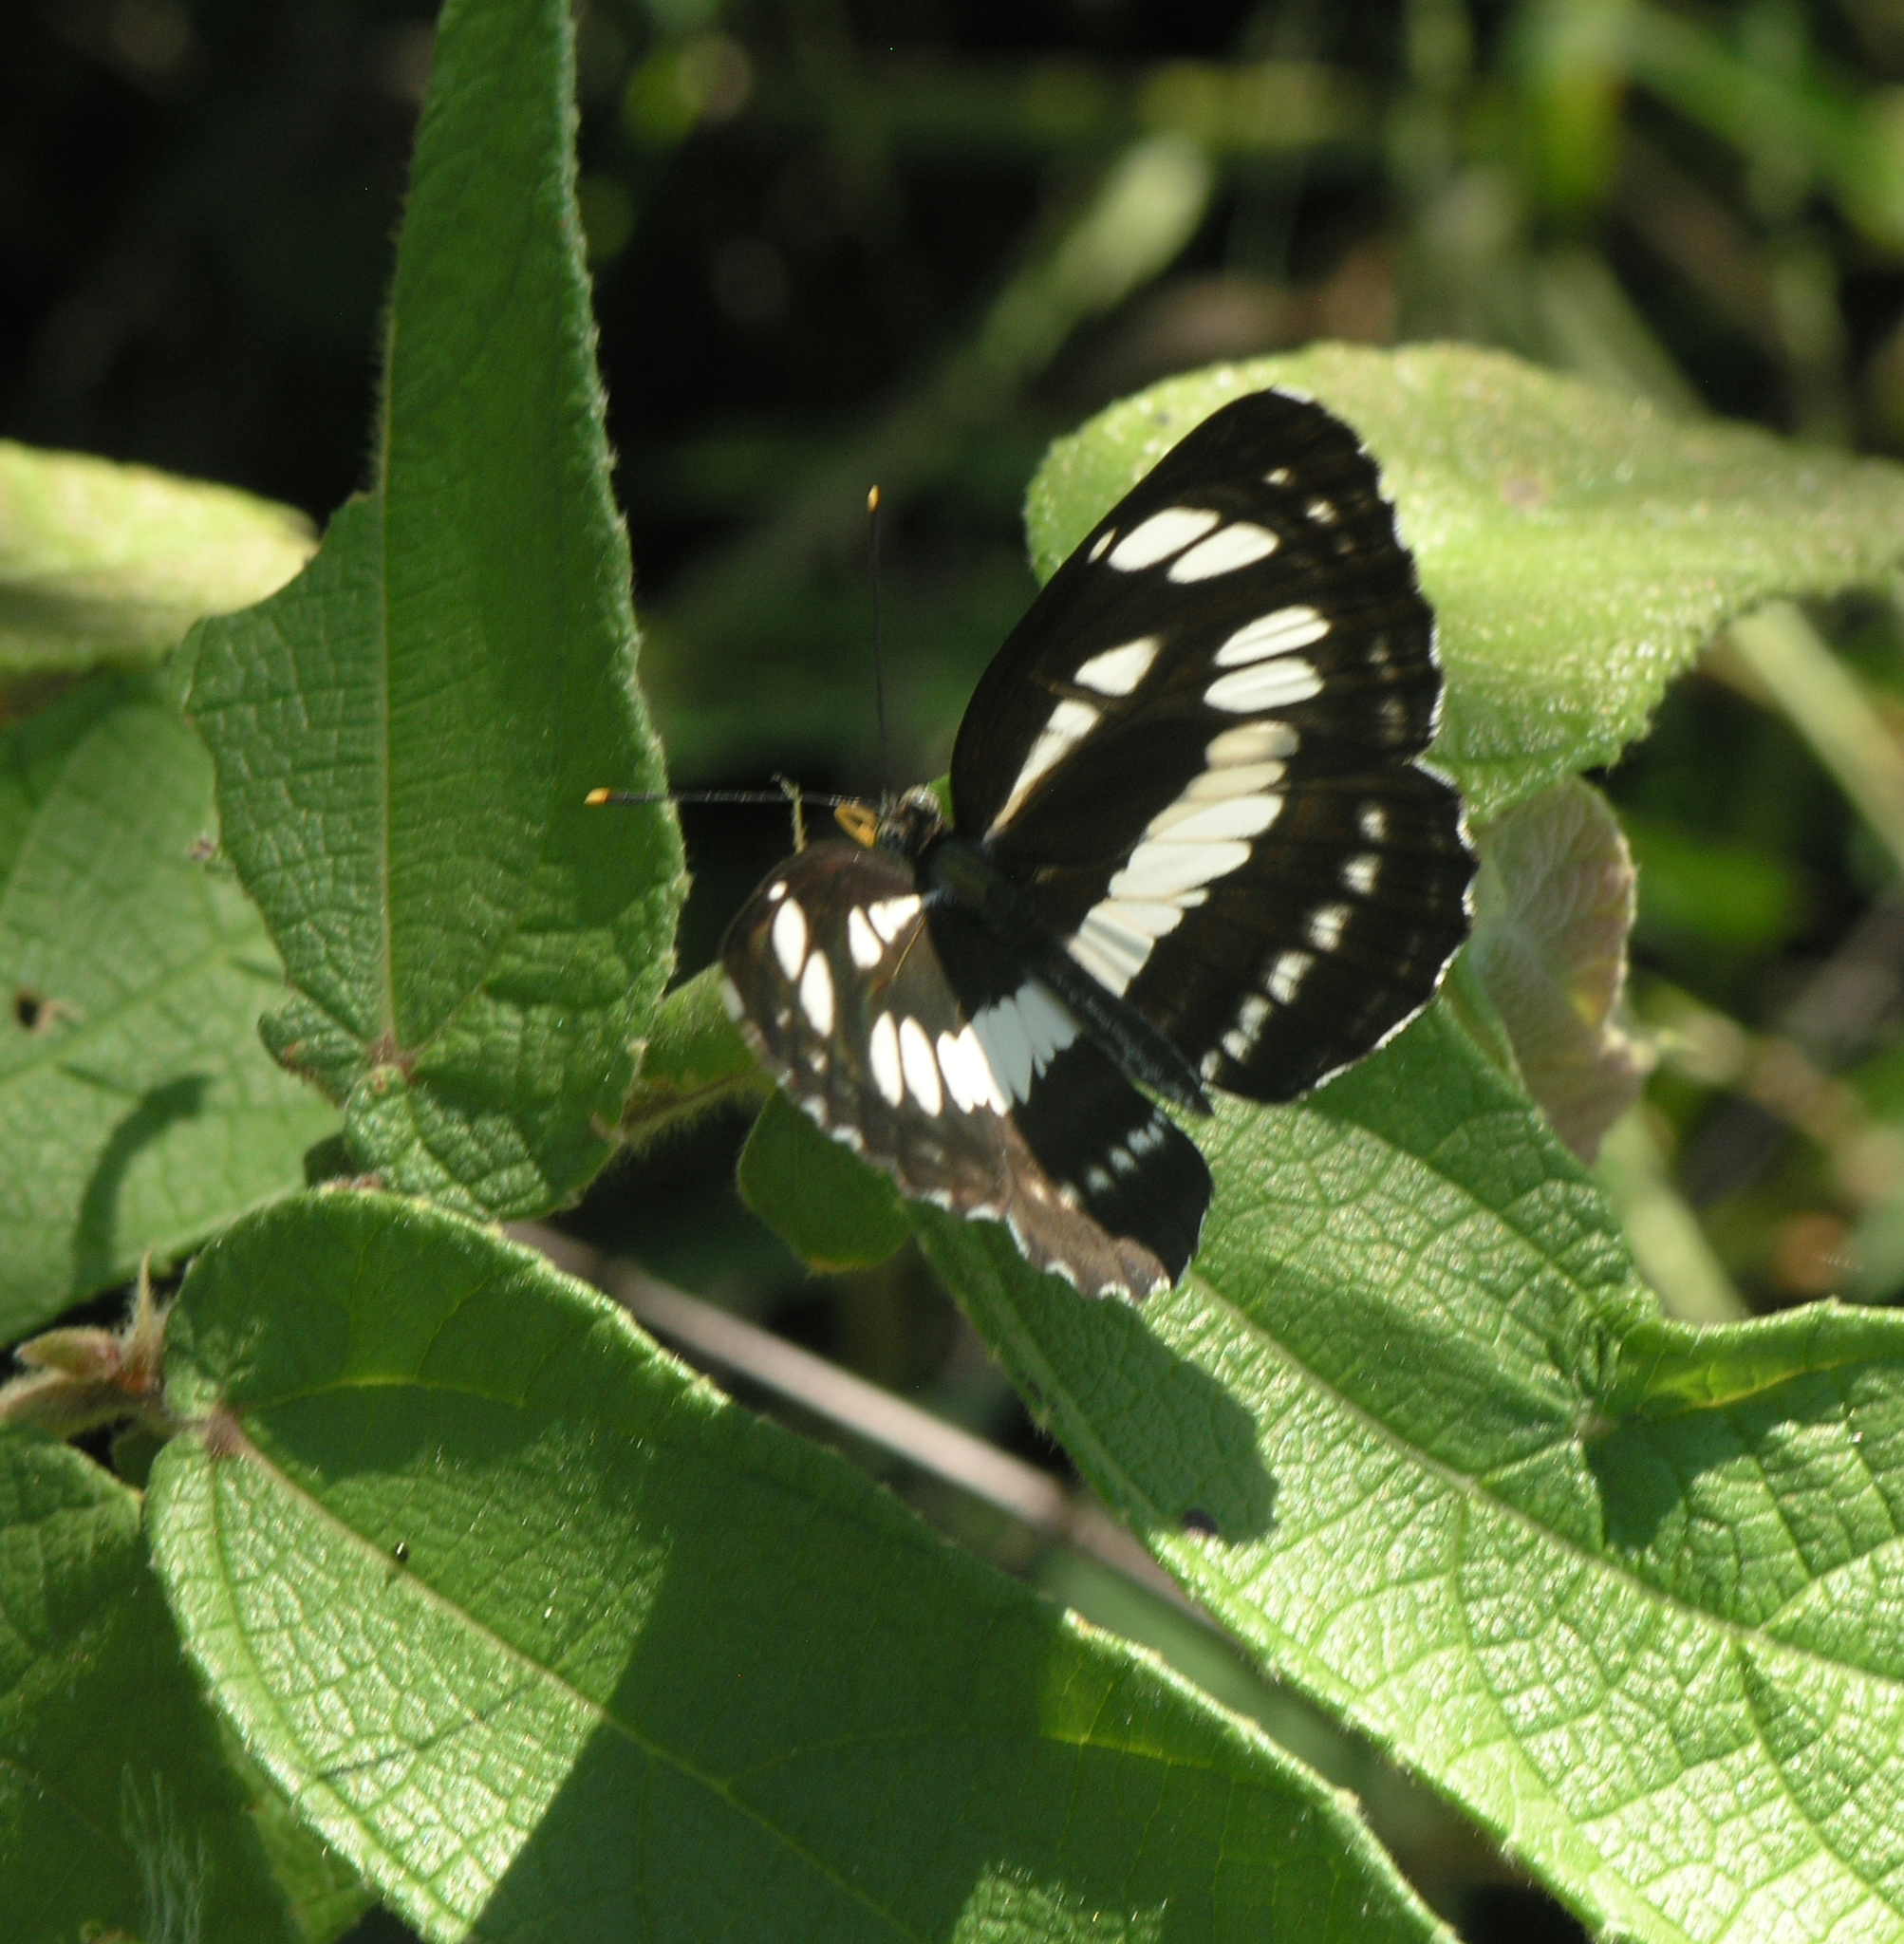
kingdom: Animalia
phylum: Arthropoda
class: Insecta
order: Lepidoptera
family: Nymphalidae
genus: Neptis
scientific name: Neptis hylas
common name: Common sailer
